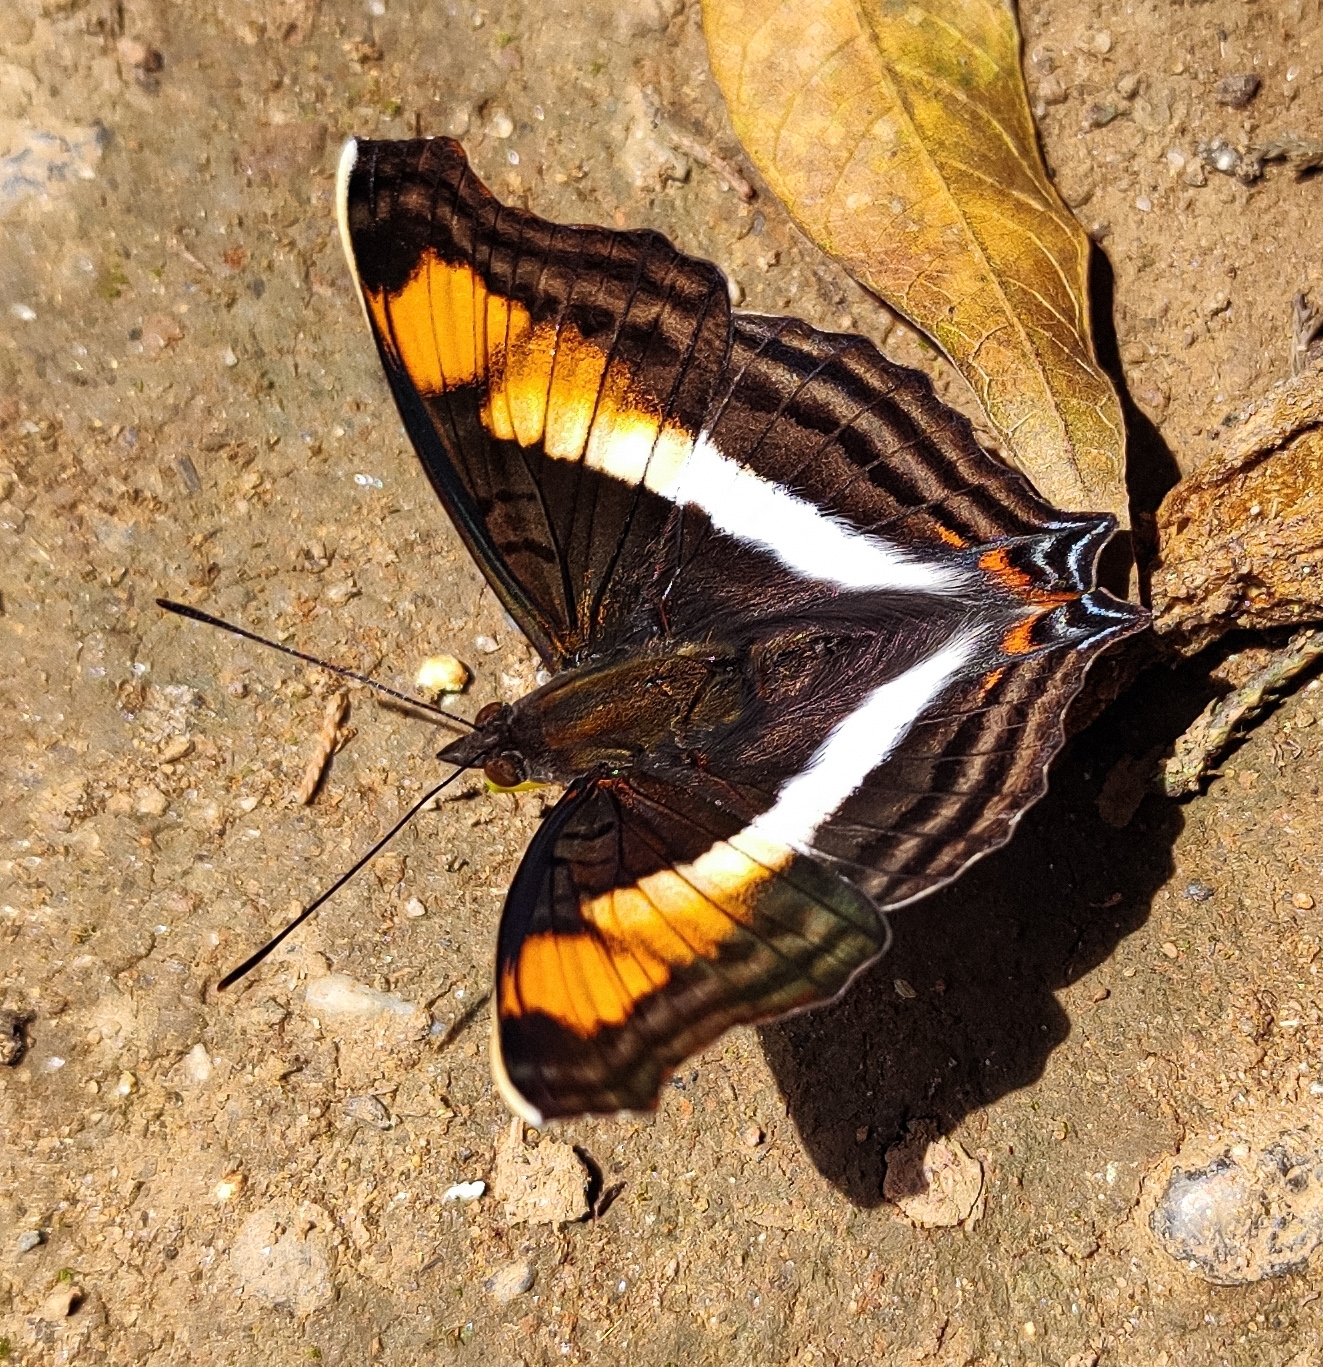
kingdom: Animalia
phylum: Arthropoda
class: Insecta
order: Lepidoptera
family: Nymphalidae
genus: Doxocopa
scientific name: Doxocopa linda
